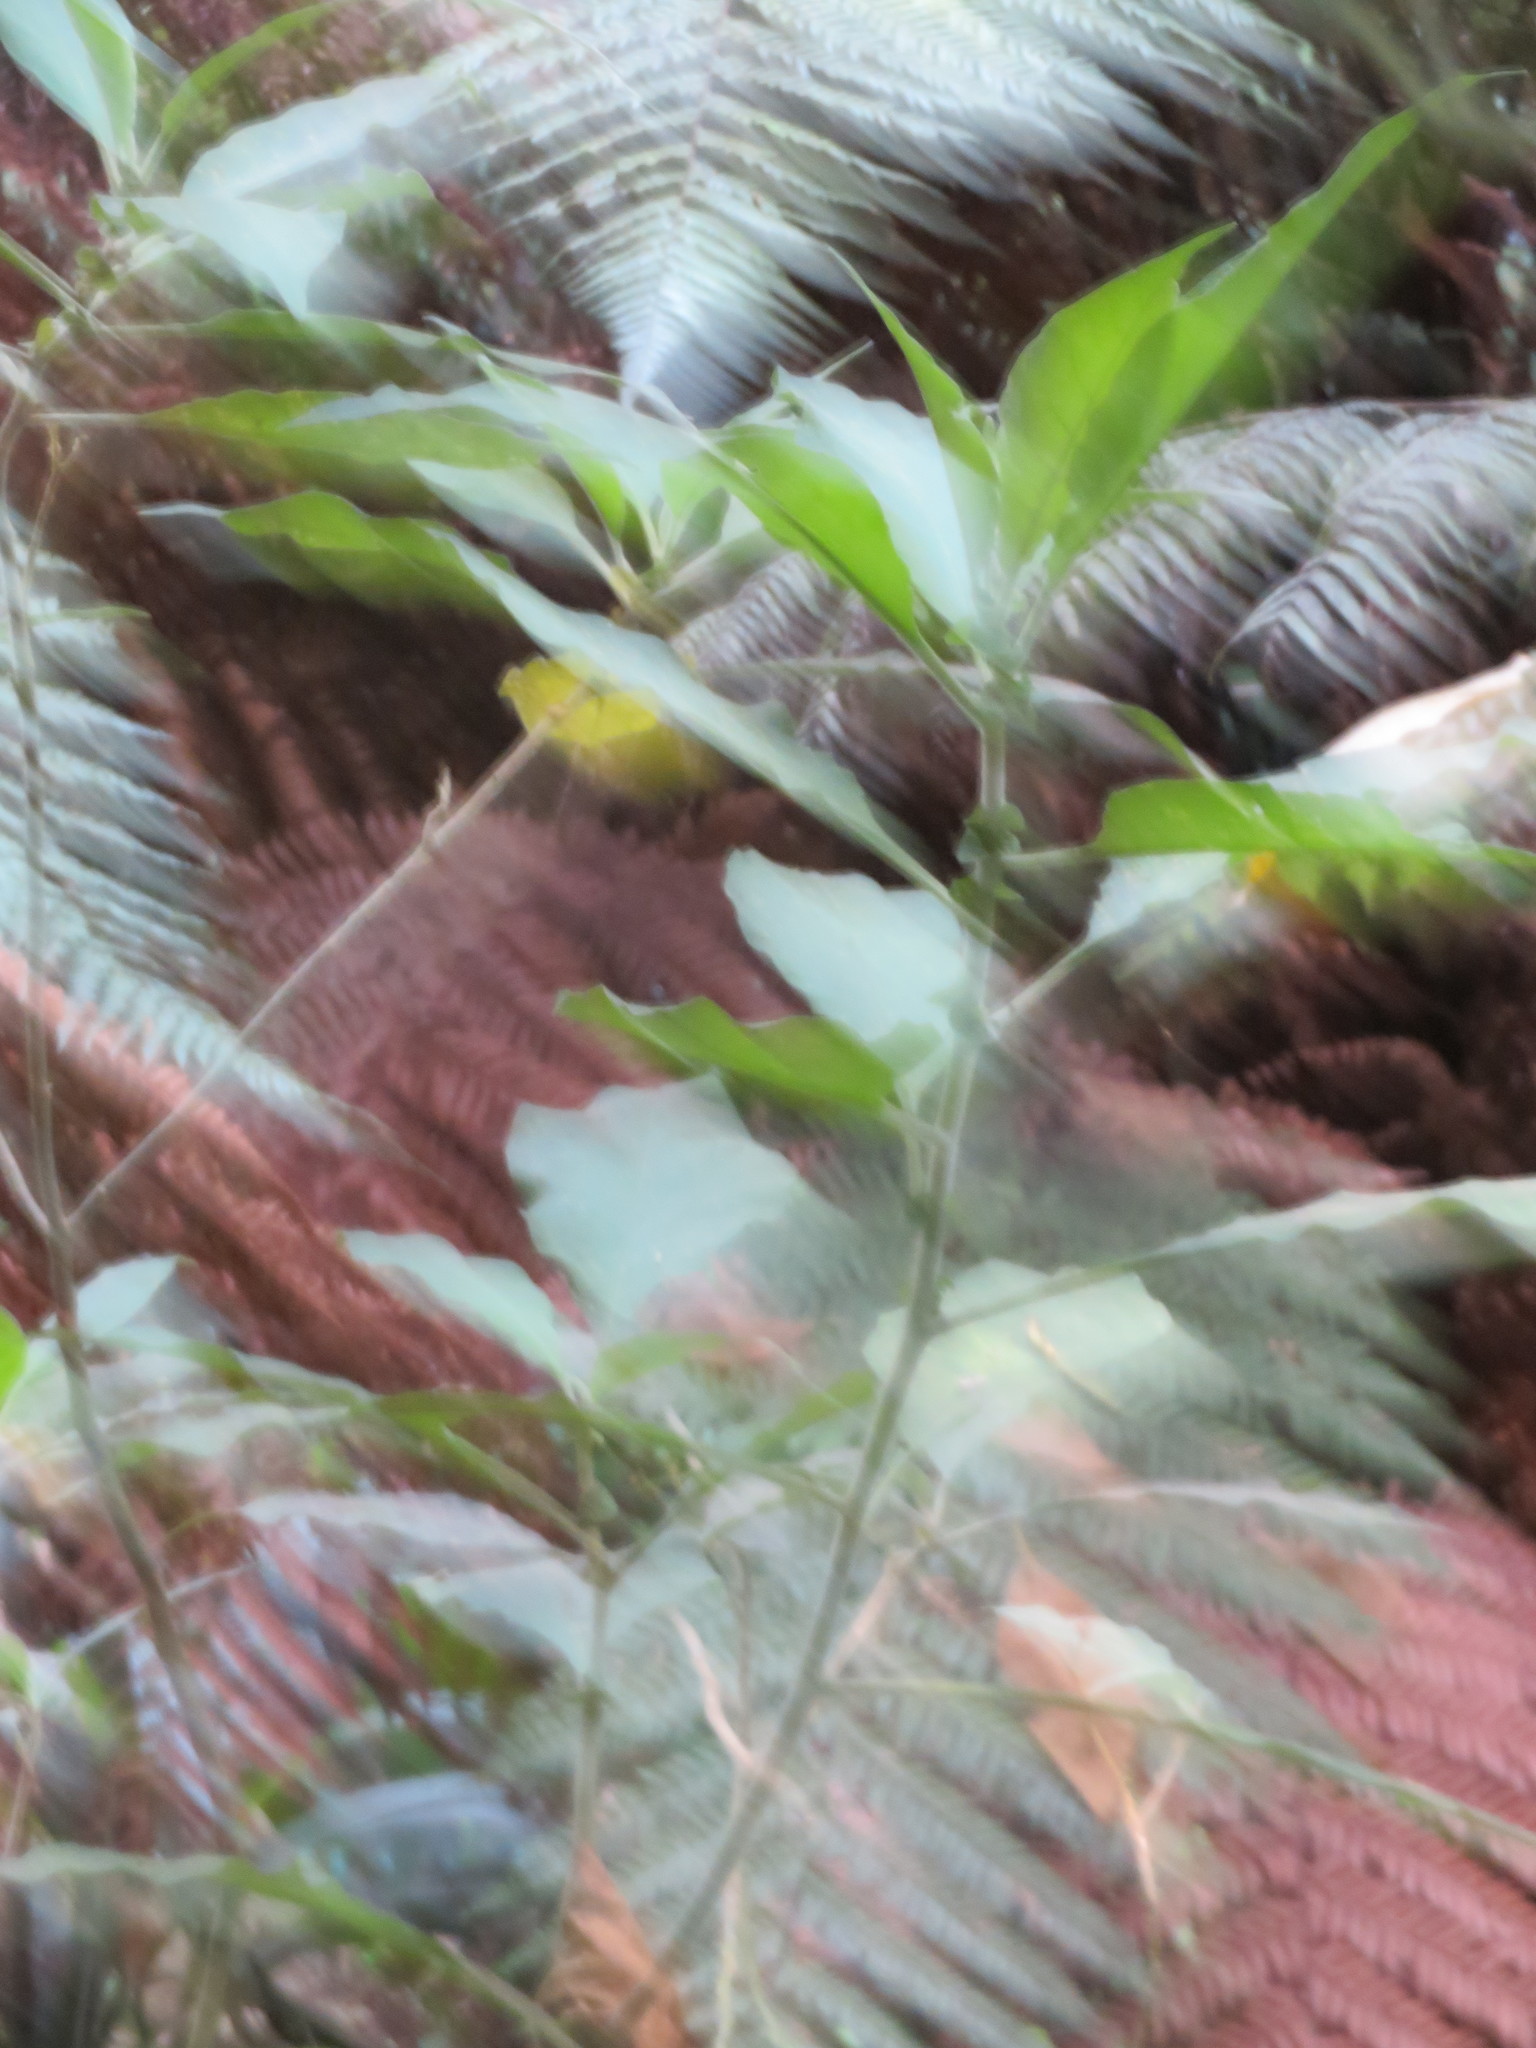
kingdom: Plantae
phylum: Tracheophyta
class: Magnoliopsida
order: Solanales
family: Solanaceae
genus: Solanum
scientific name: Solanum mauritianum
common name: Earleaf nightshade
